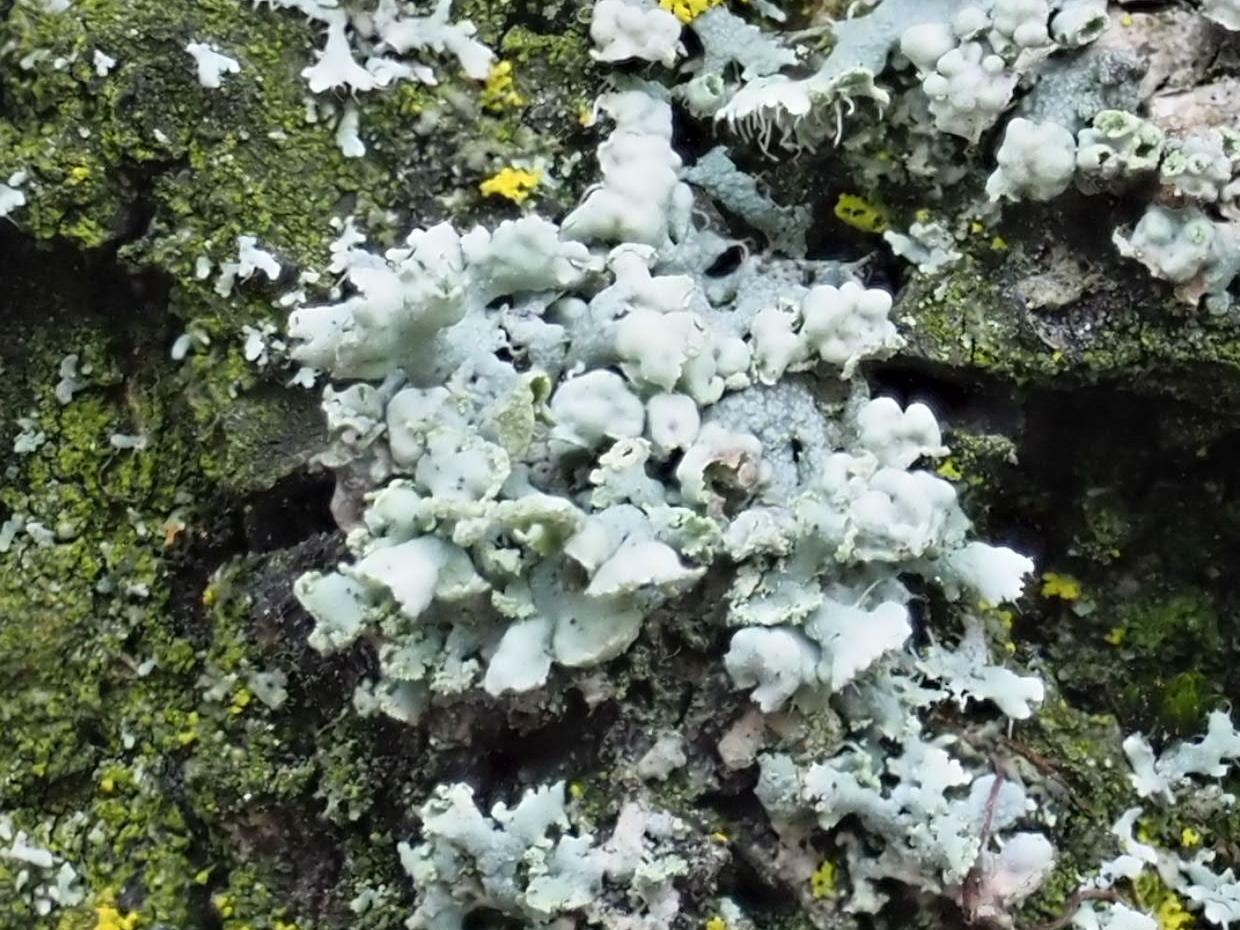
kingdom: Fungi
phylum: Ascomycota
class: Lecanoromycetes
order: Caliciales
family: Physciaceae
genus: Physcia
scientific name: Physcia adscendens
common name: Hooded rosette lichen
